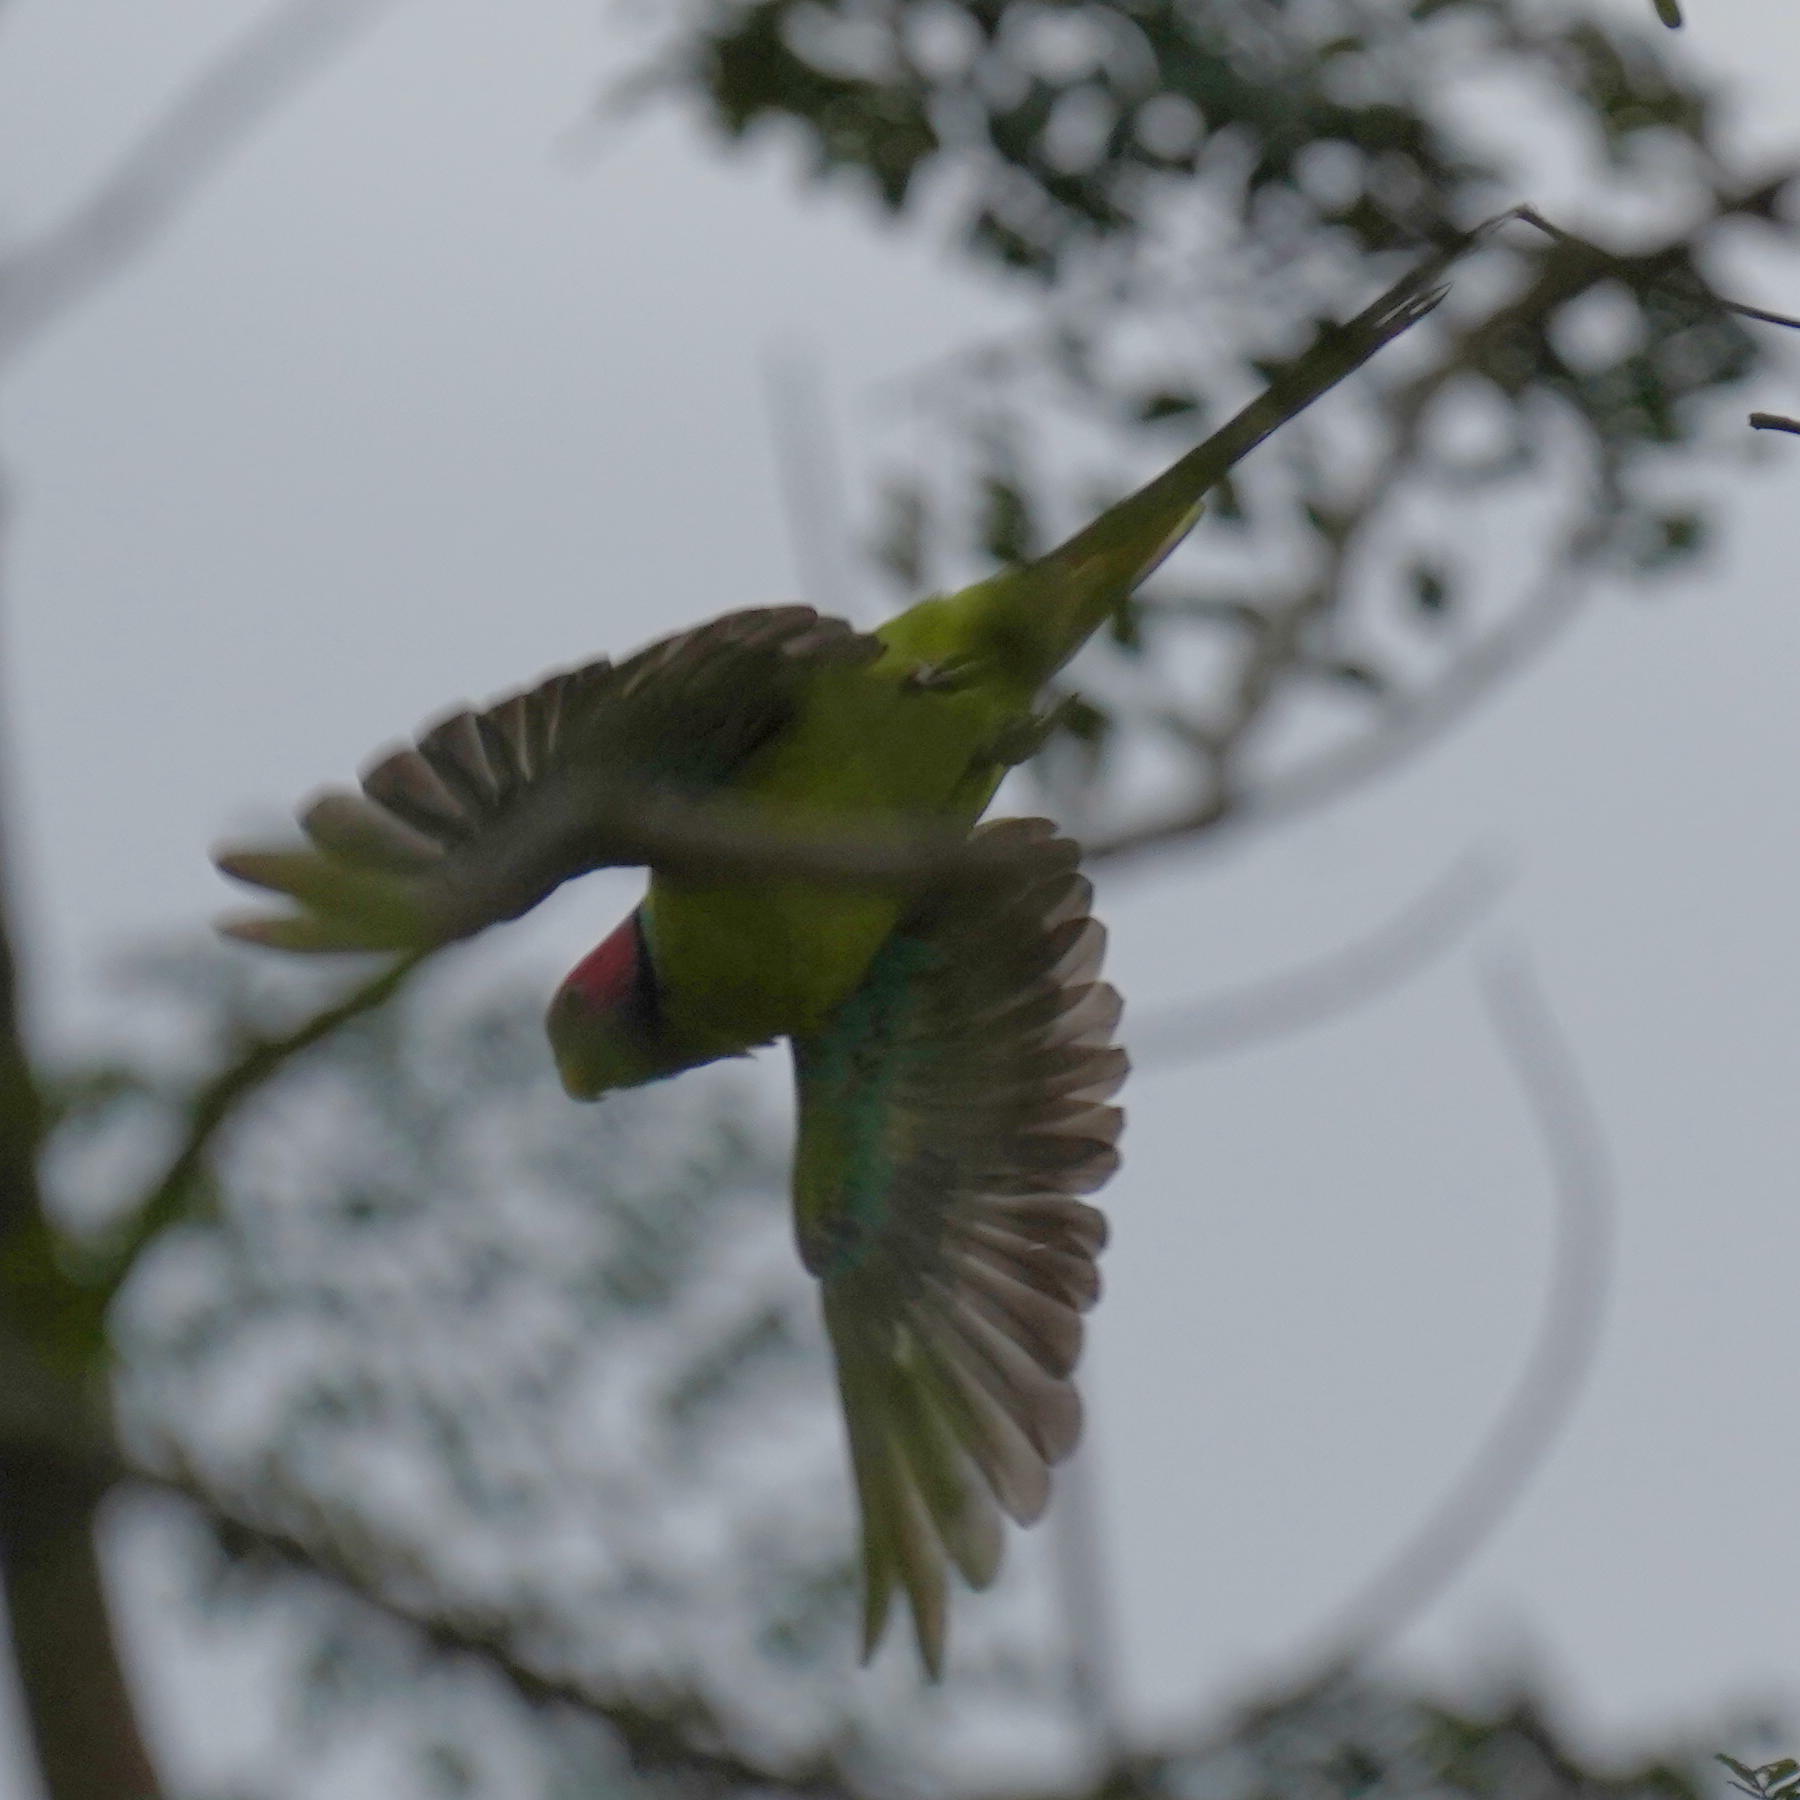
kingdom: Animalia
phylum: Chordata
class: Aves
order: Psittaciformes
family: Psittacidae
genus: Psittacula
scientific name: Psittacula cyanocephala
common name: Plum-headed parakeet
